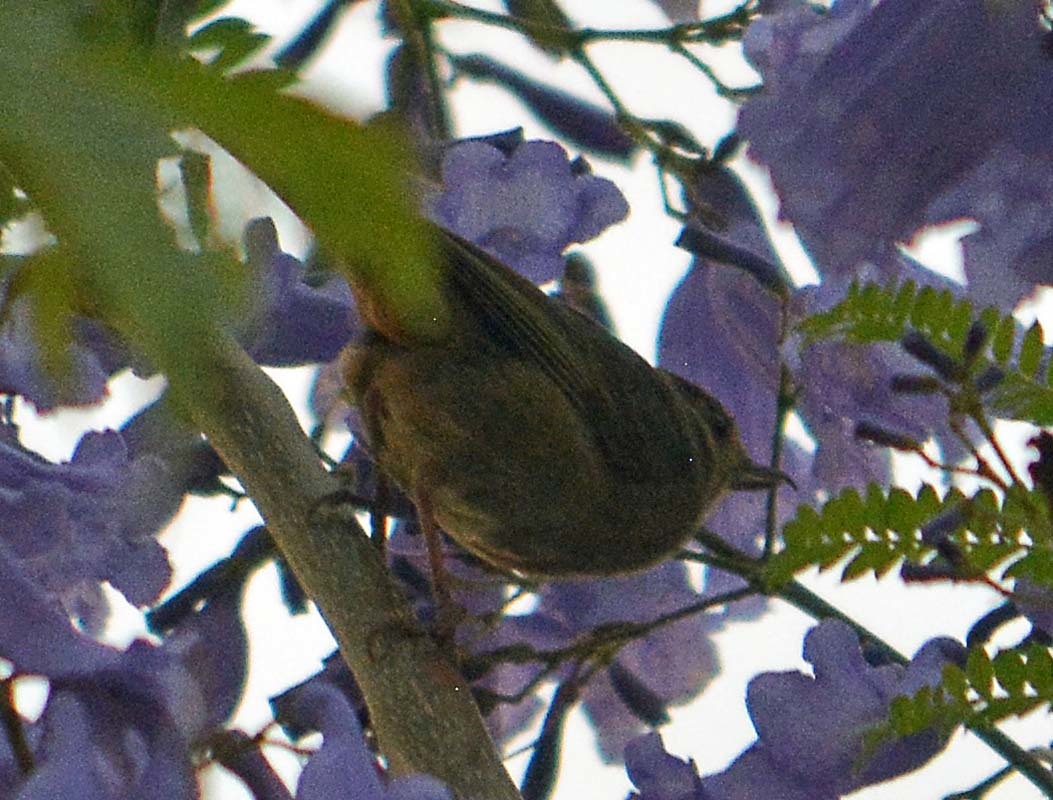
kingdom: Animalia
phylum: Chordata
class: Aves
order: Passeriformes
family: Thraupidae
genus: Diglossa
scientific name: Diglossa baritula
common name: Cinnamon-bellied flowerpiercer
